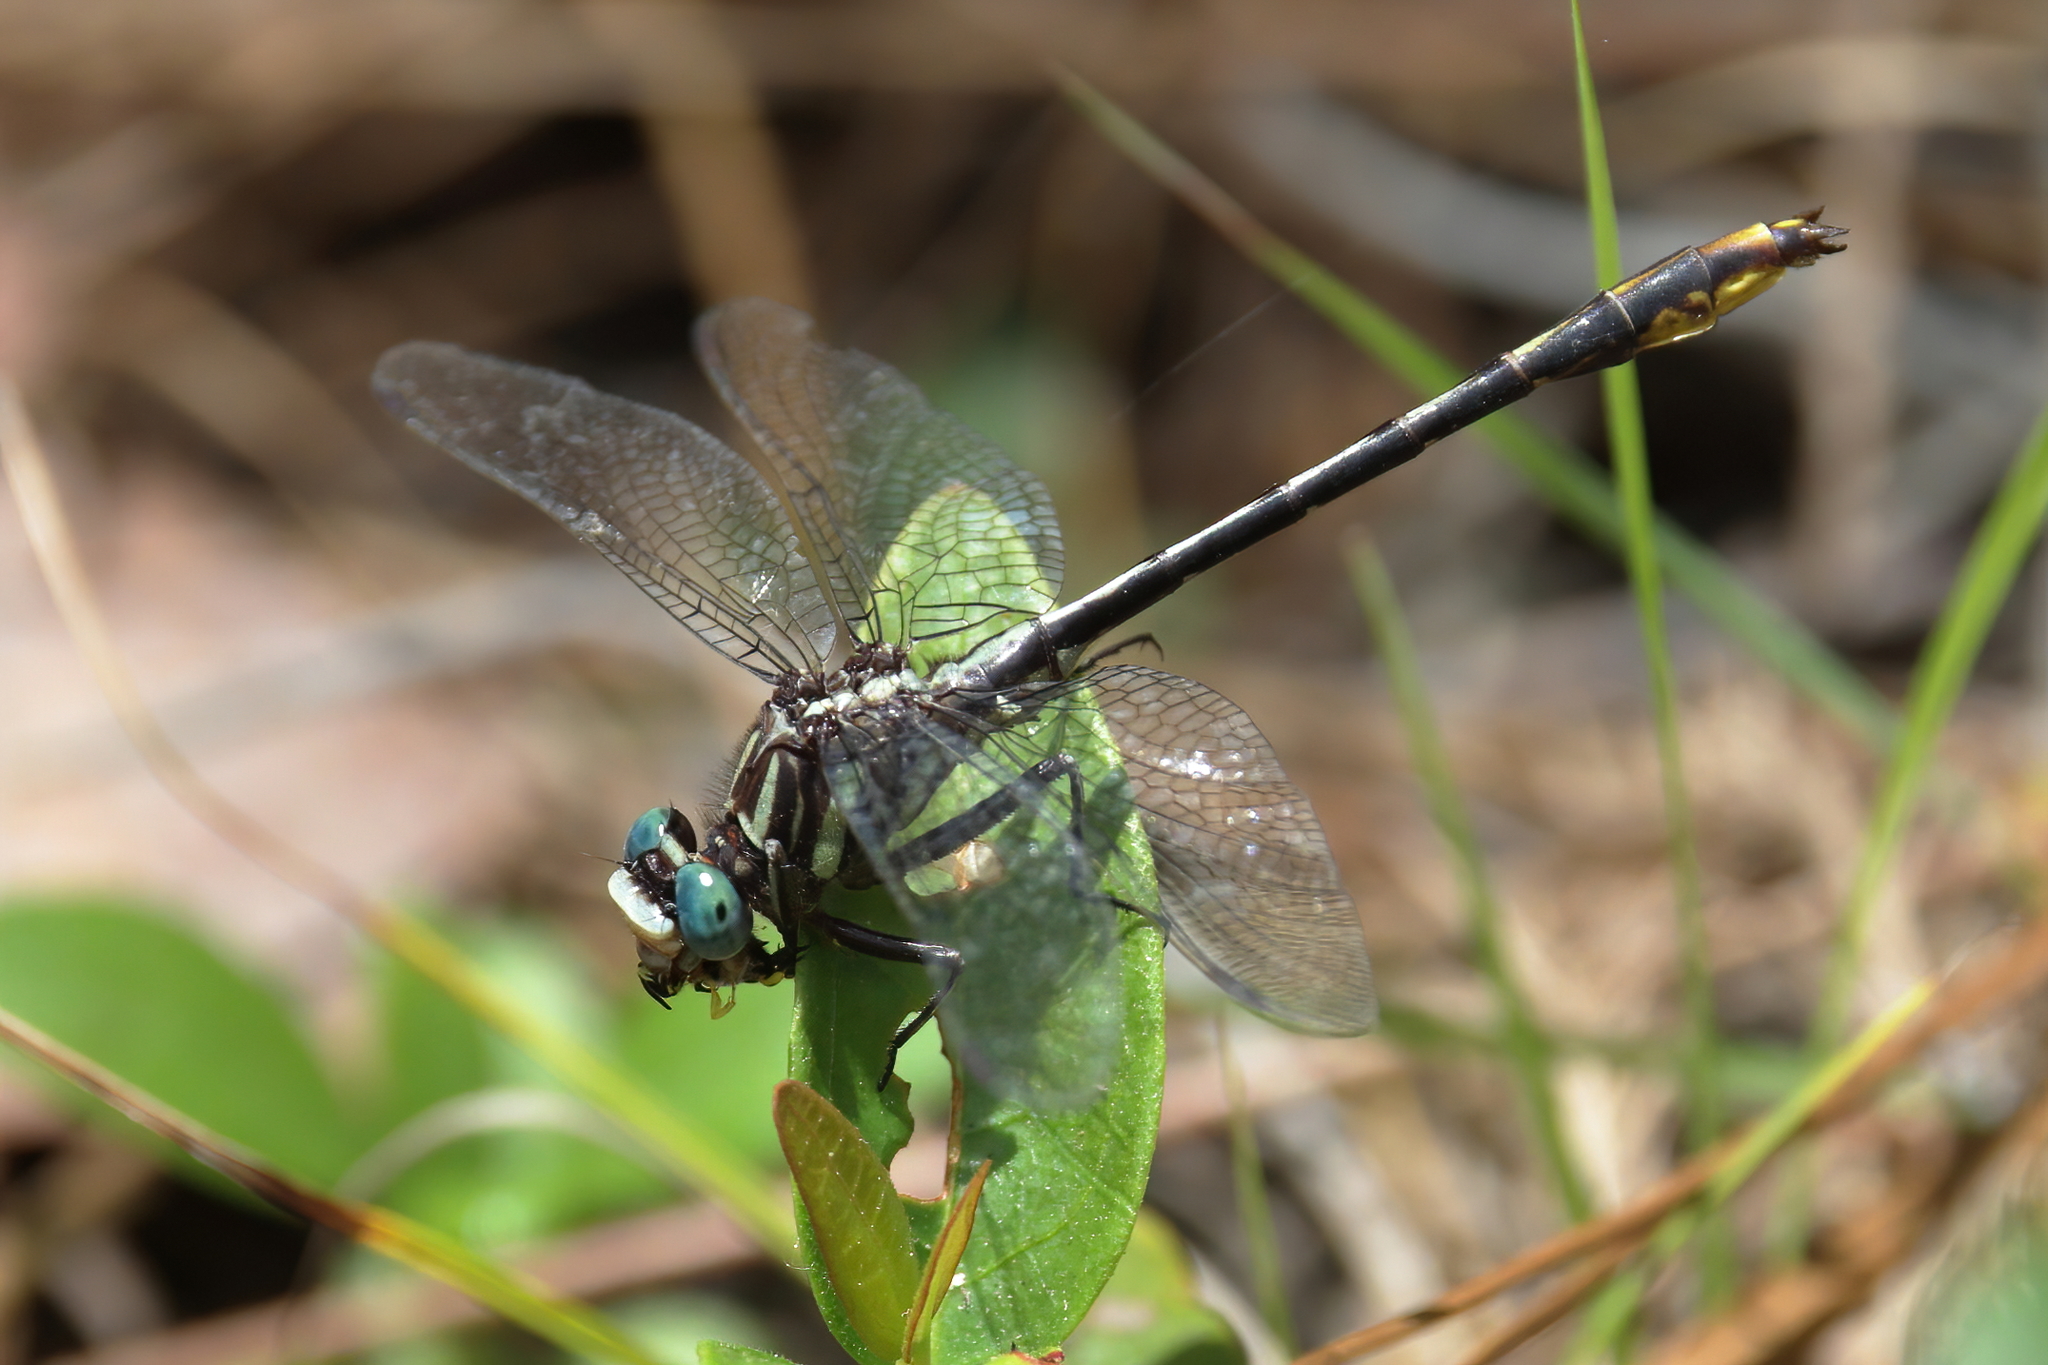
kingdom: Animalia
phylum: Arthropoda
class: Insecta
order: Odonata
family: Gomphidae
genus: Phanogomphus
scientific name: Phanogomphus exilis
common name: Lancet clubtail
